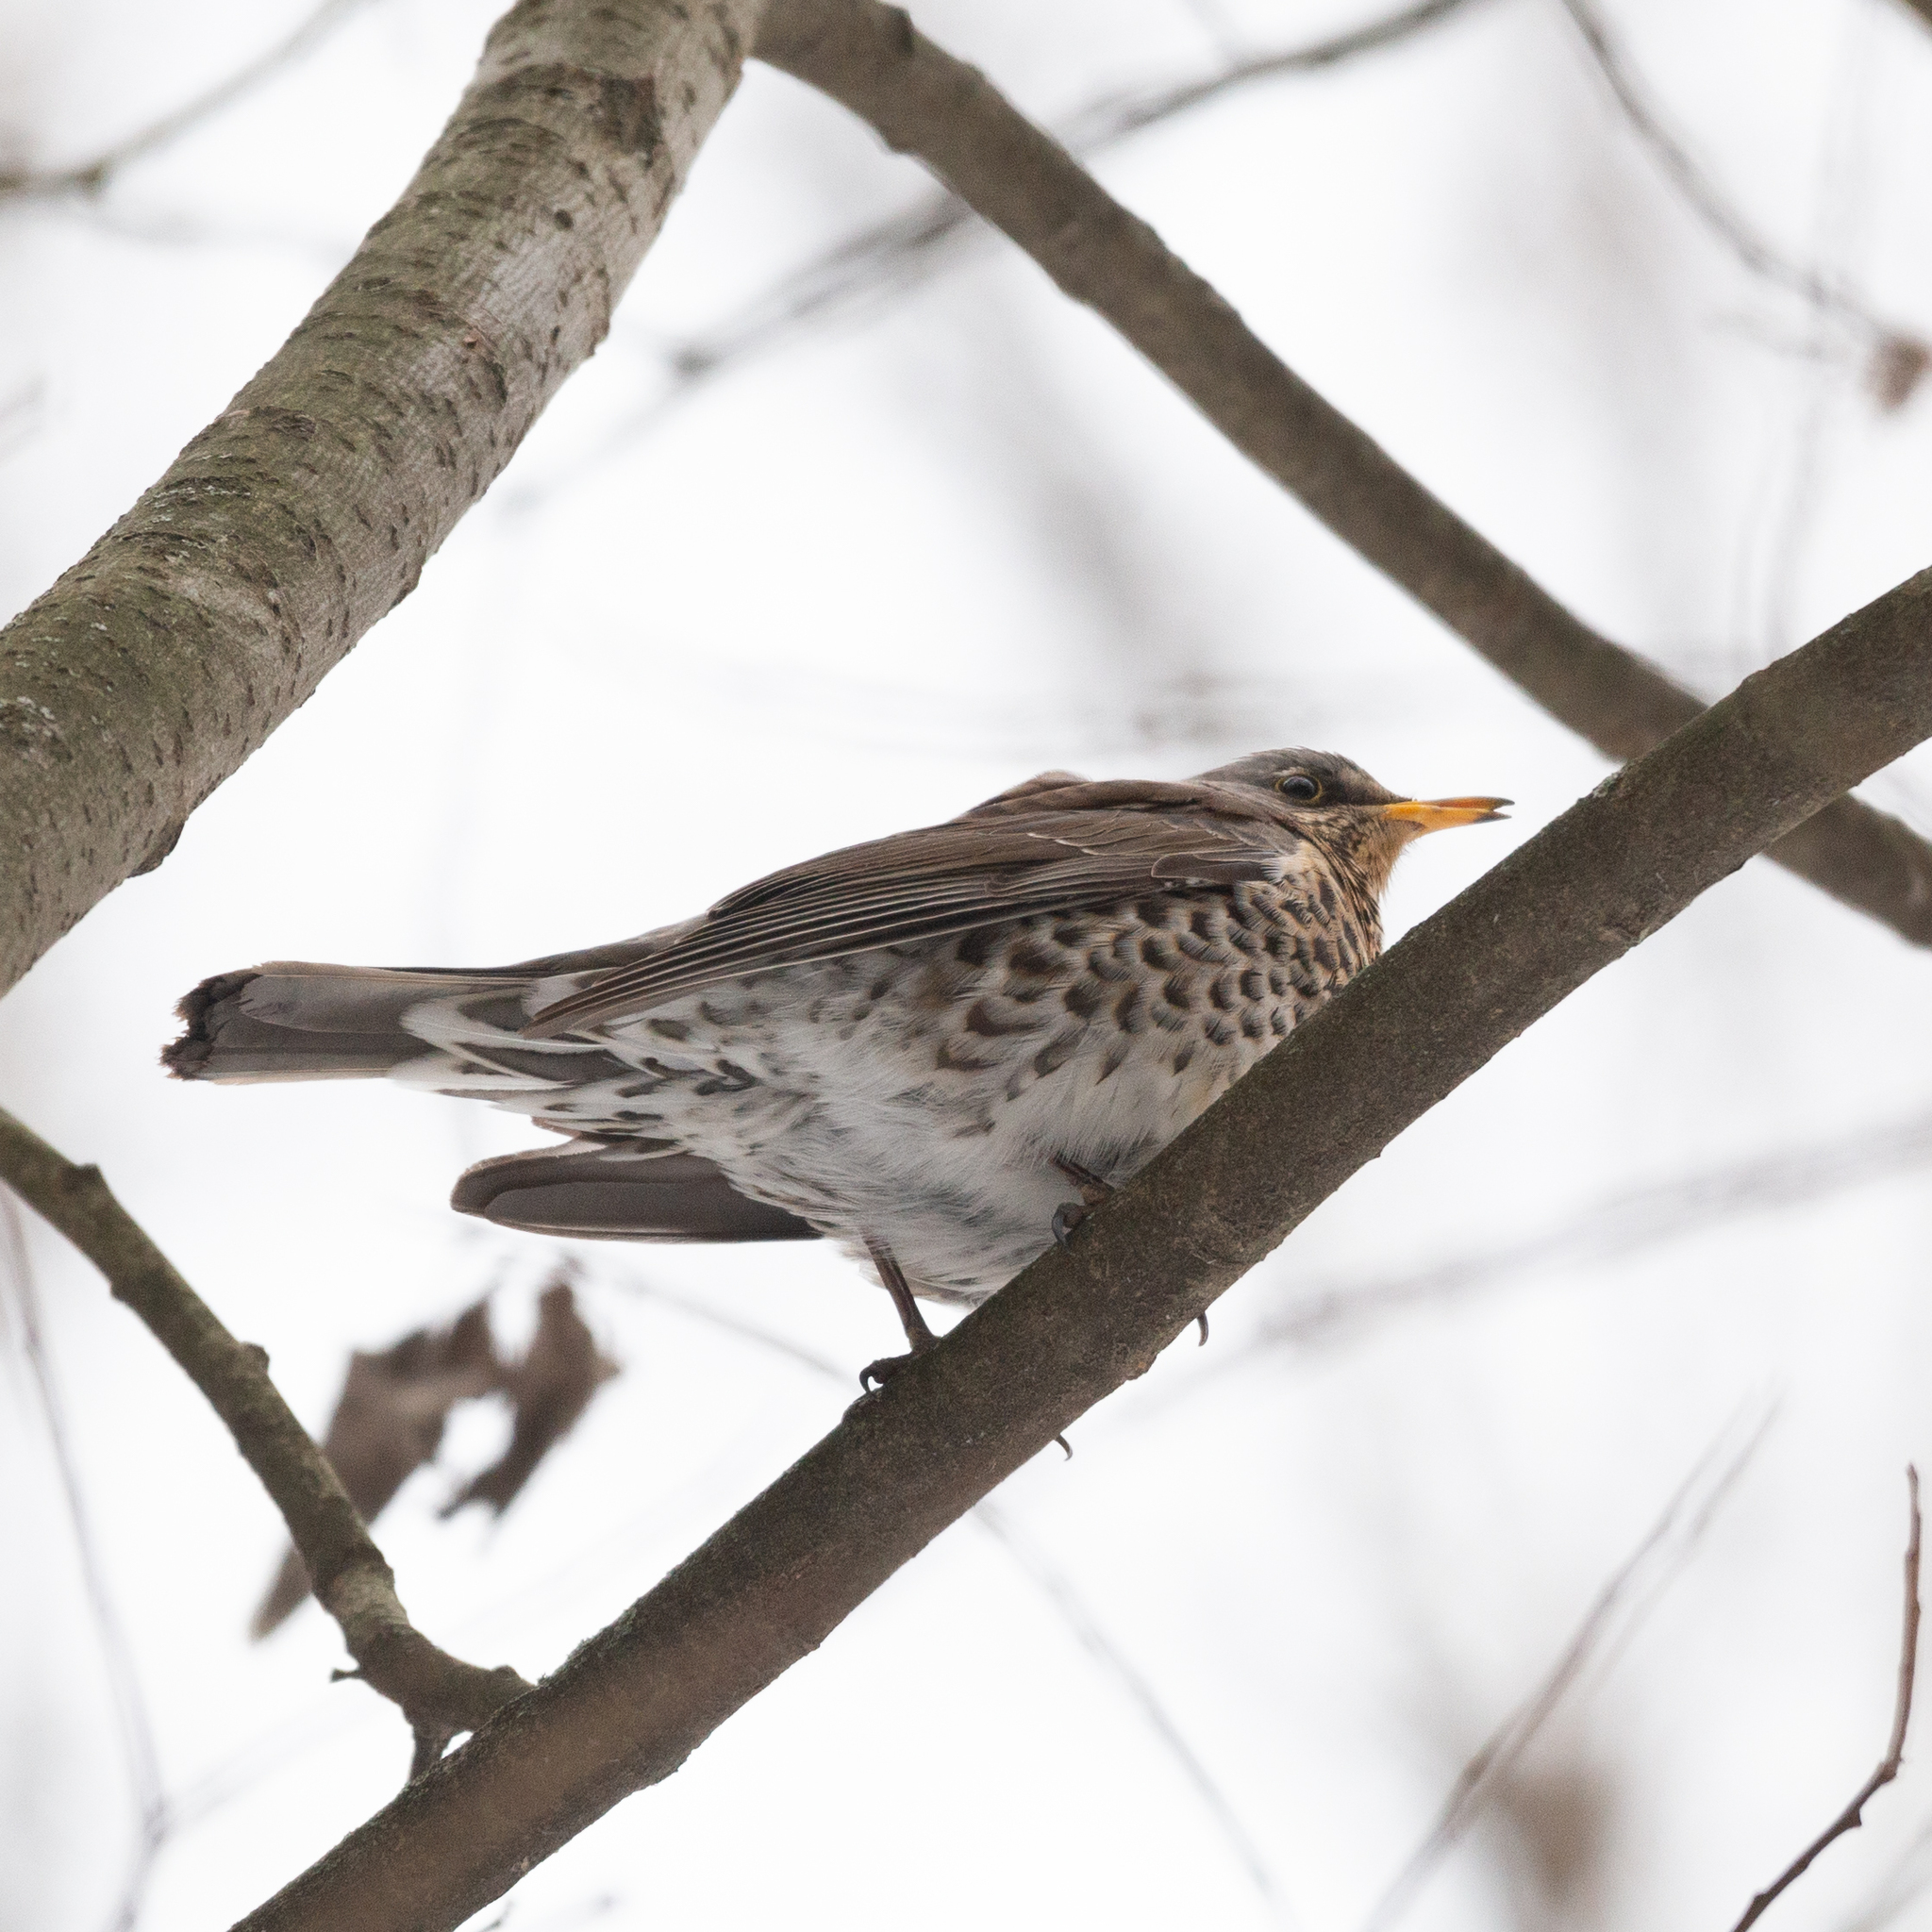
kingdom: Animalia
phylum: Chordata
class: Aves
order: Passeriformes
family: Turdidae
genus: Turdus
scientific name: Turdus pilaris
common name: Fieldfare
